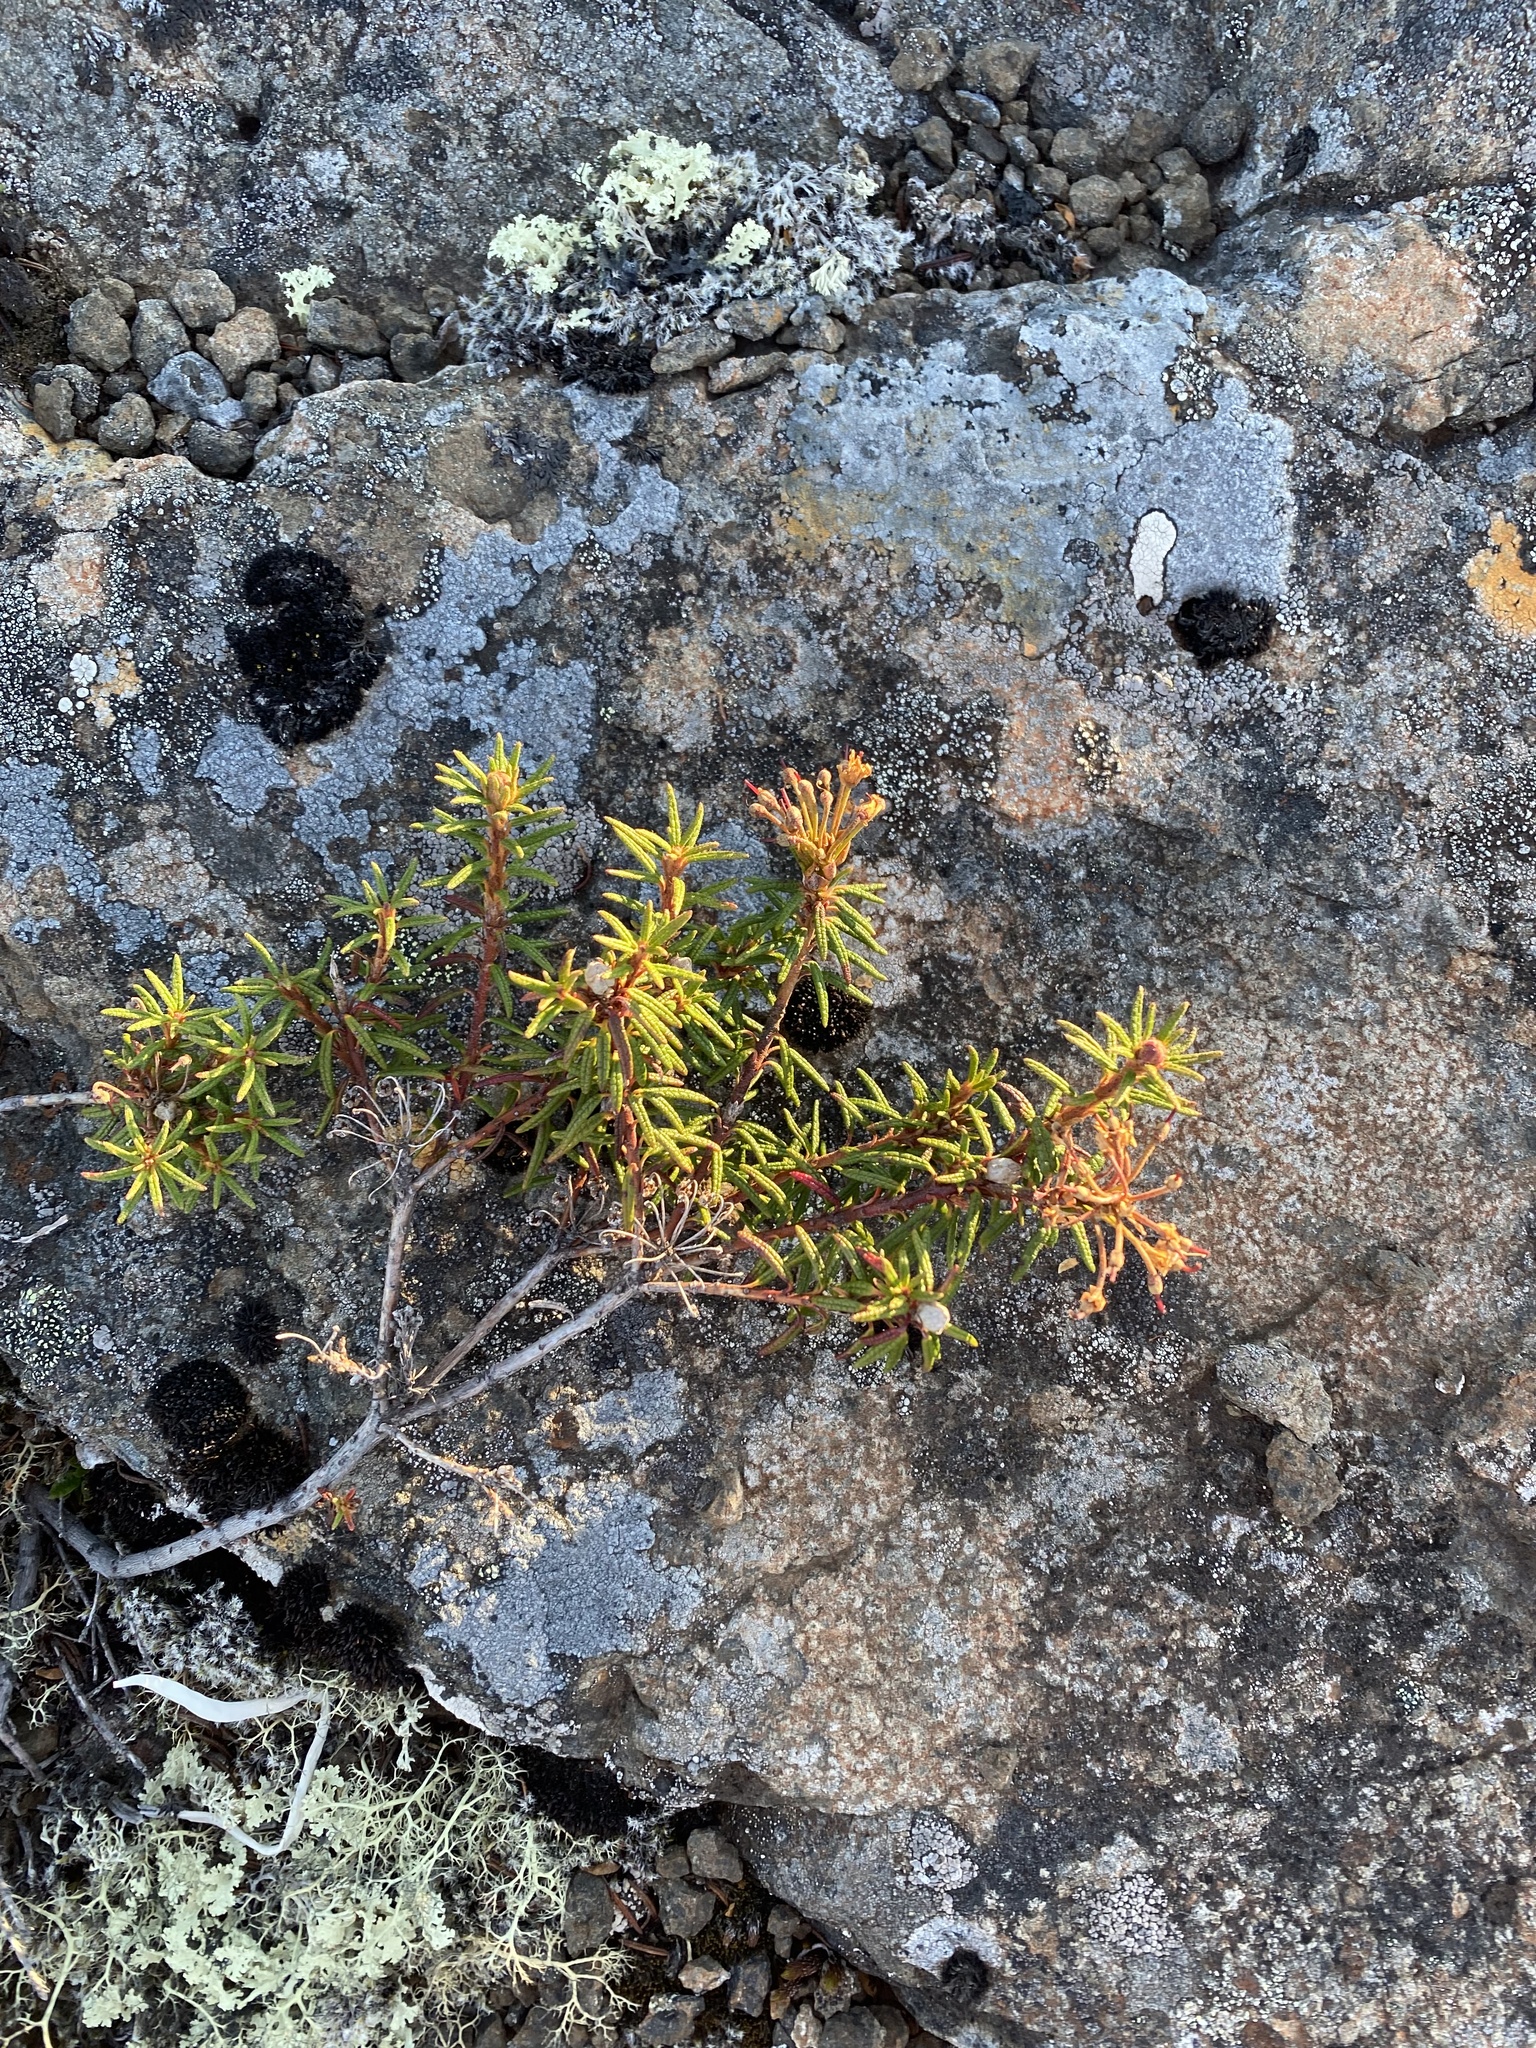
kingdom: Plantae
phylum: Tracheophyta
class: Magnoliopsida
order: Ericales
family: Ericaceae
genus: Rhododendron
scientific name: Rhododendron tomentosum
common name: Marsh labrador tea
